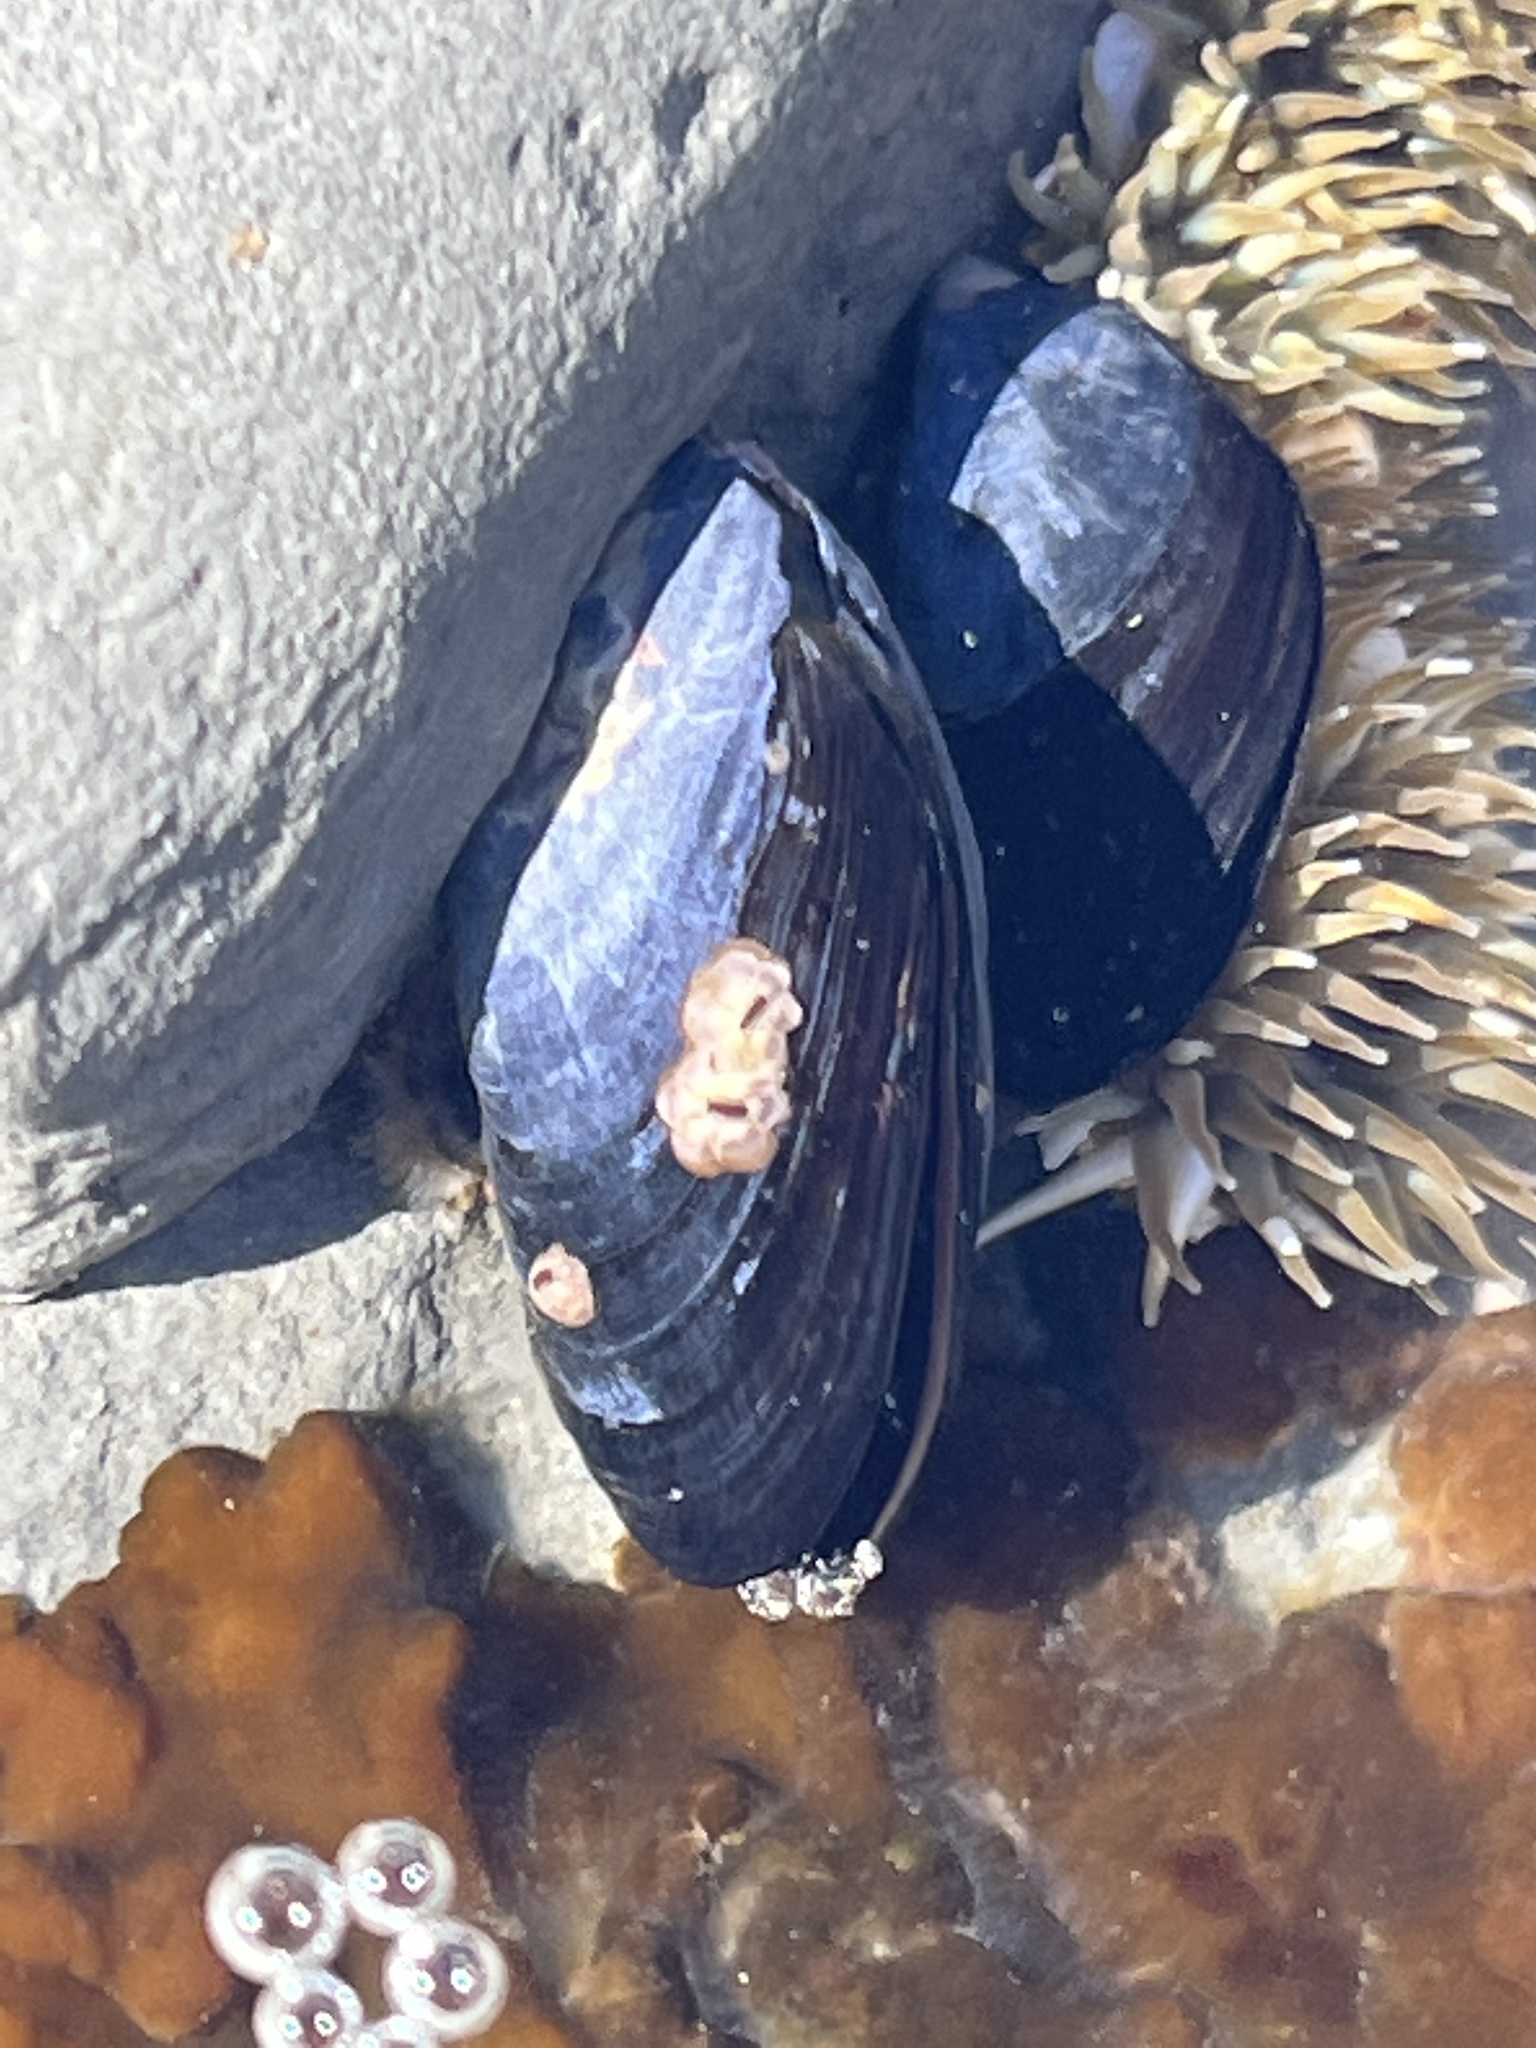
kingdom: Animalia
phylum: Mollusca
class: Bivalvia
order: Mytilida
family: Mytilidae
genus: Mytilus
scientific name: Mytilus californianus
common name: California mussel
